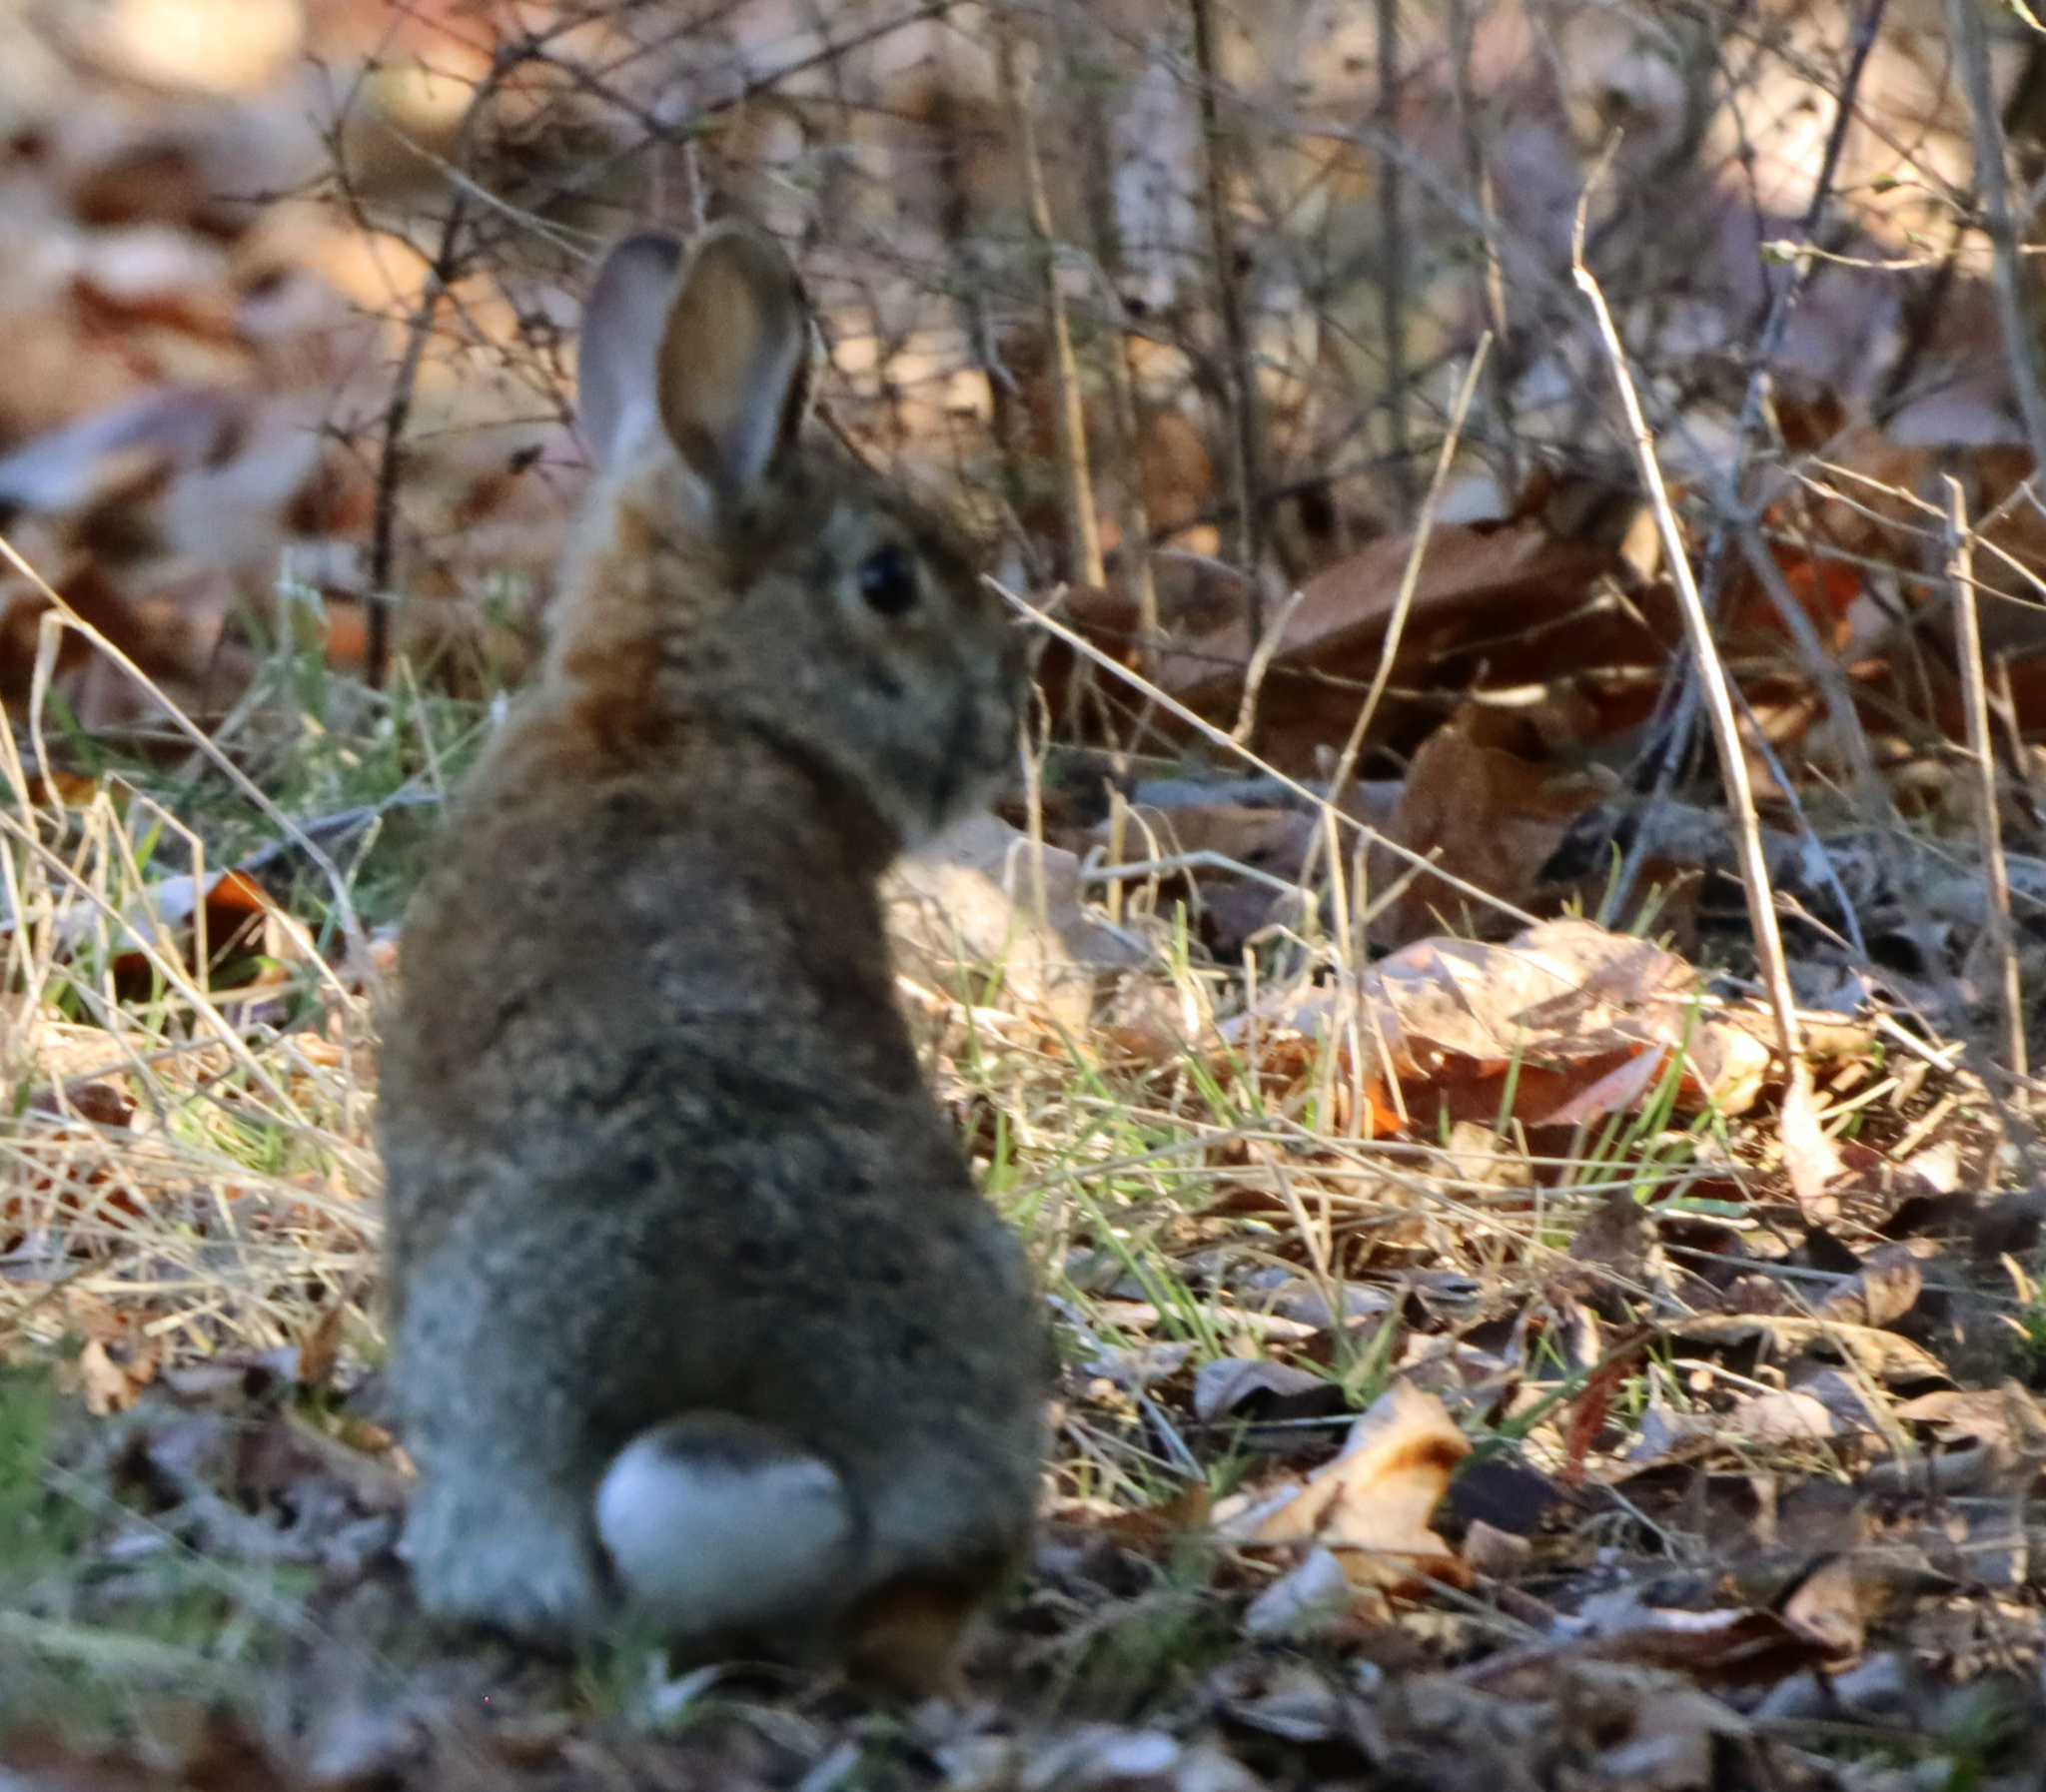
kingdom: Animalia
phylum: Chordata
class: Mammalia
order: Lagomorpha
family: Leporidae
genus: Sylvilagus
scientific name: Sylvilagus floridanus
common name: Eastern cottontail
